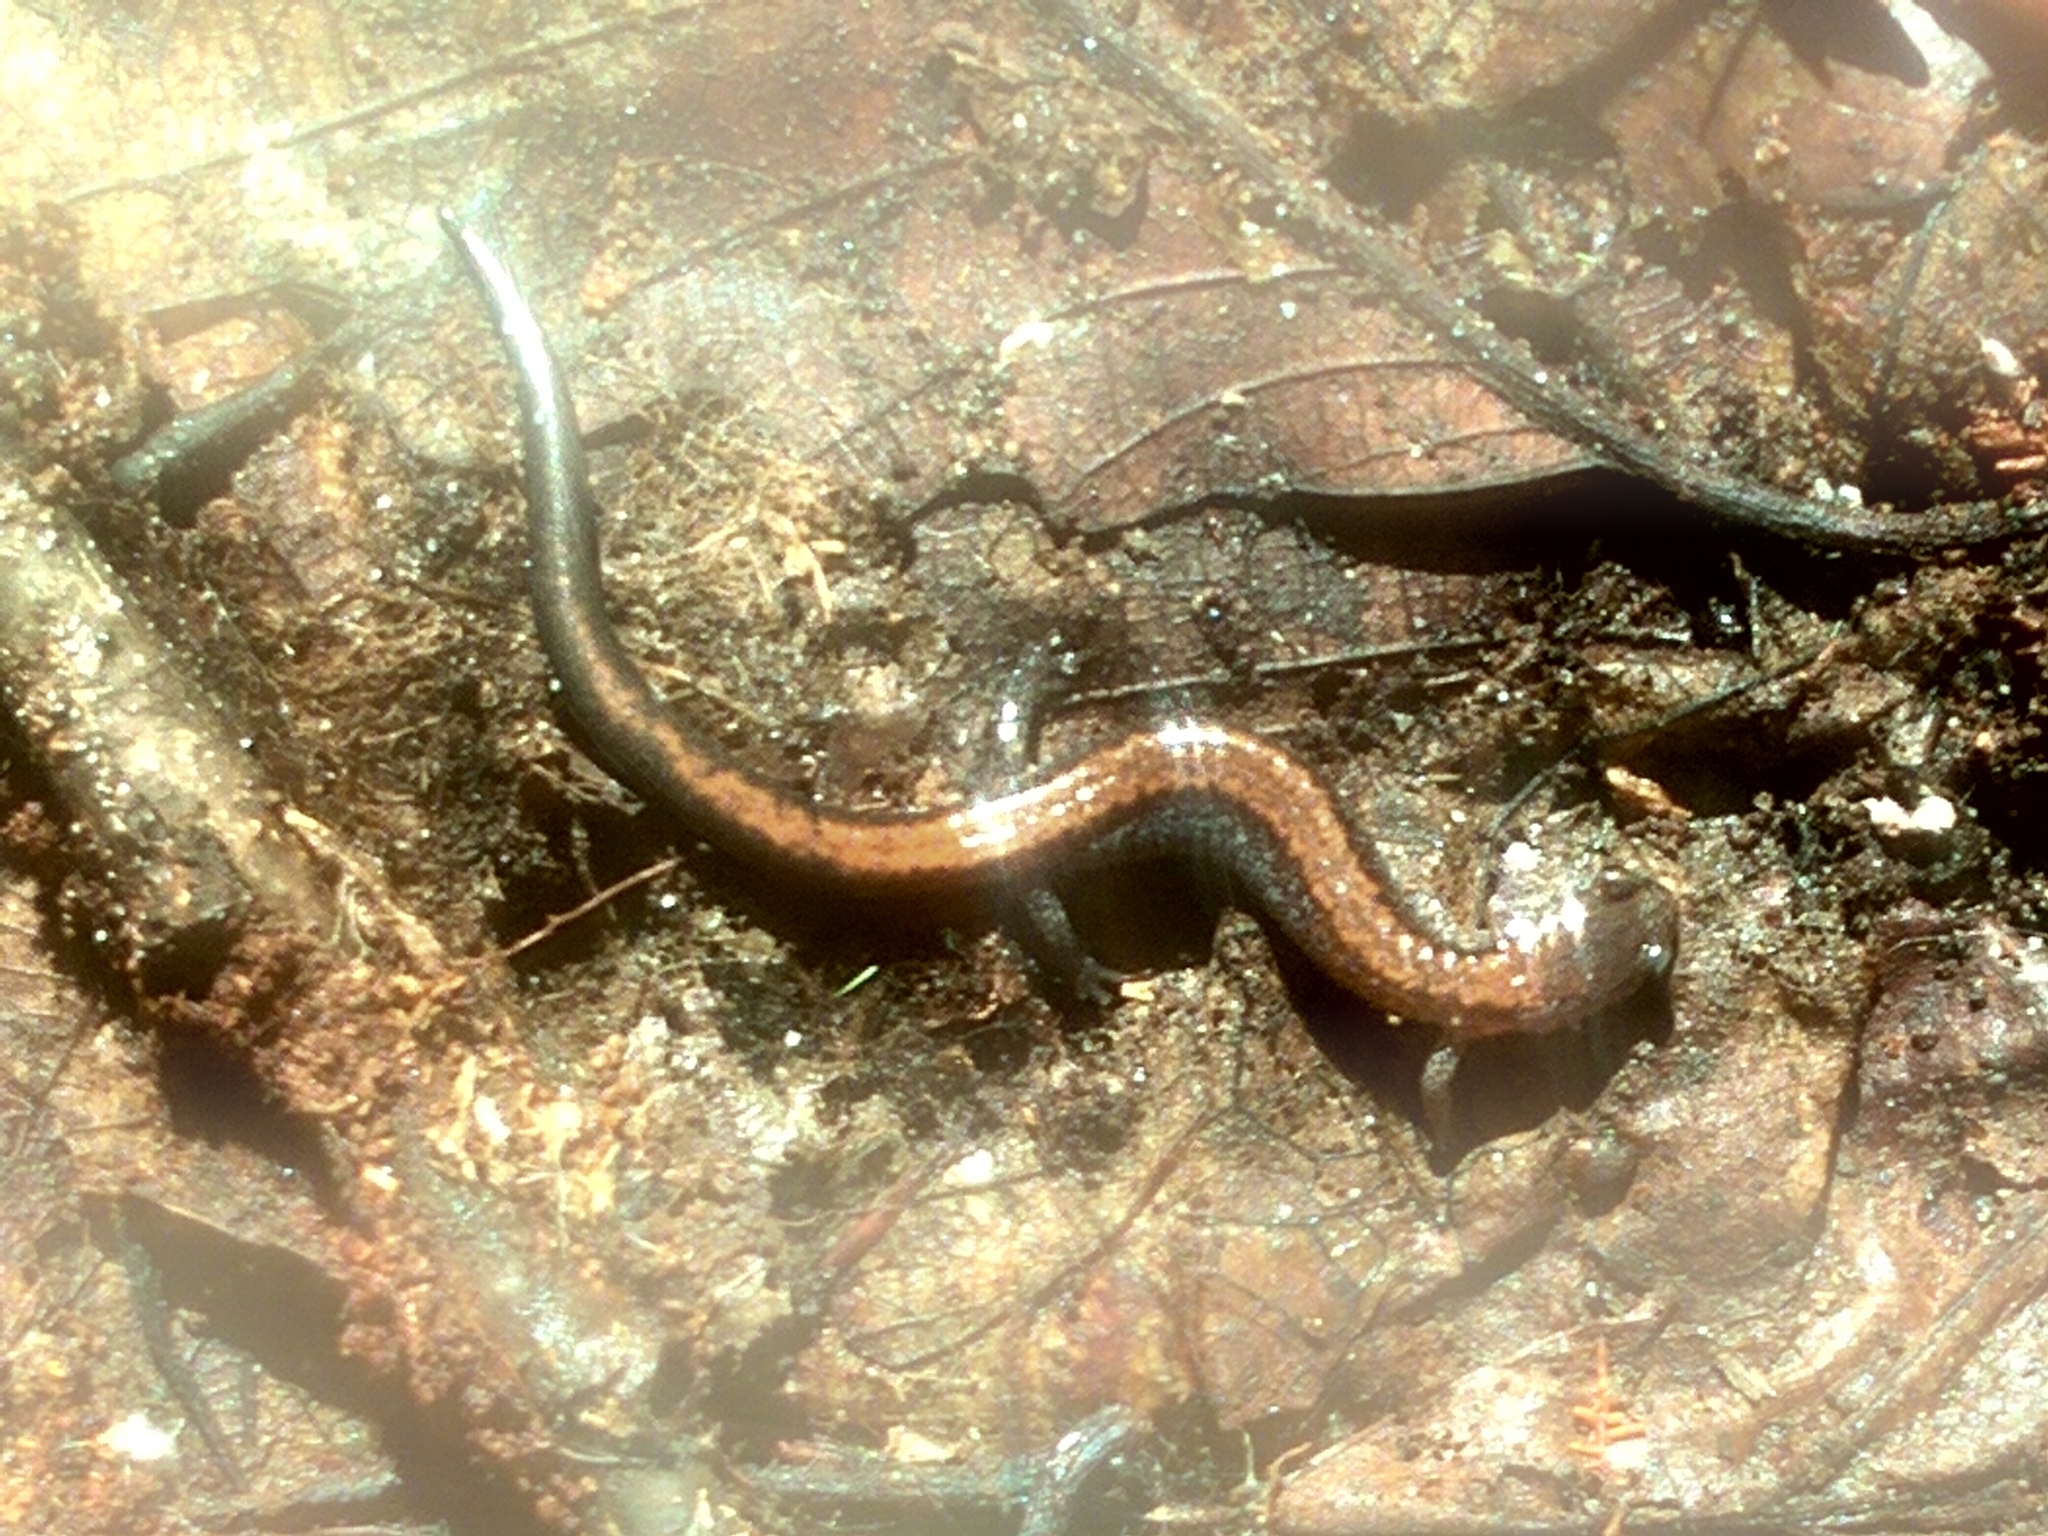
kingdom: Animalia
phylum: Chordata
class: Amphibia
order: Caudata
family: Plethodontidae
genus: Plethodon
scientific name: Plethodon cinereus
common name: Redback salamander
